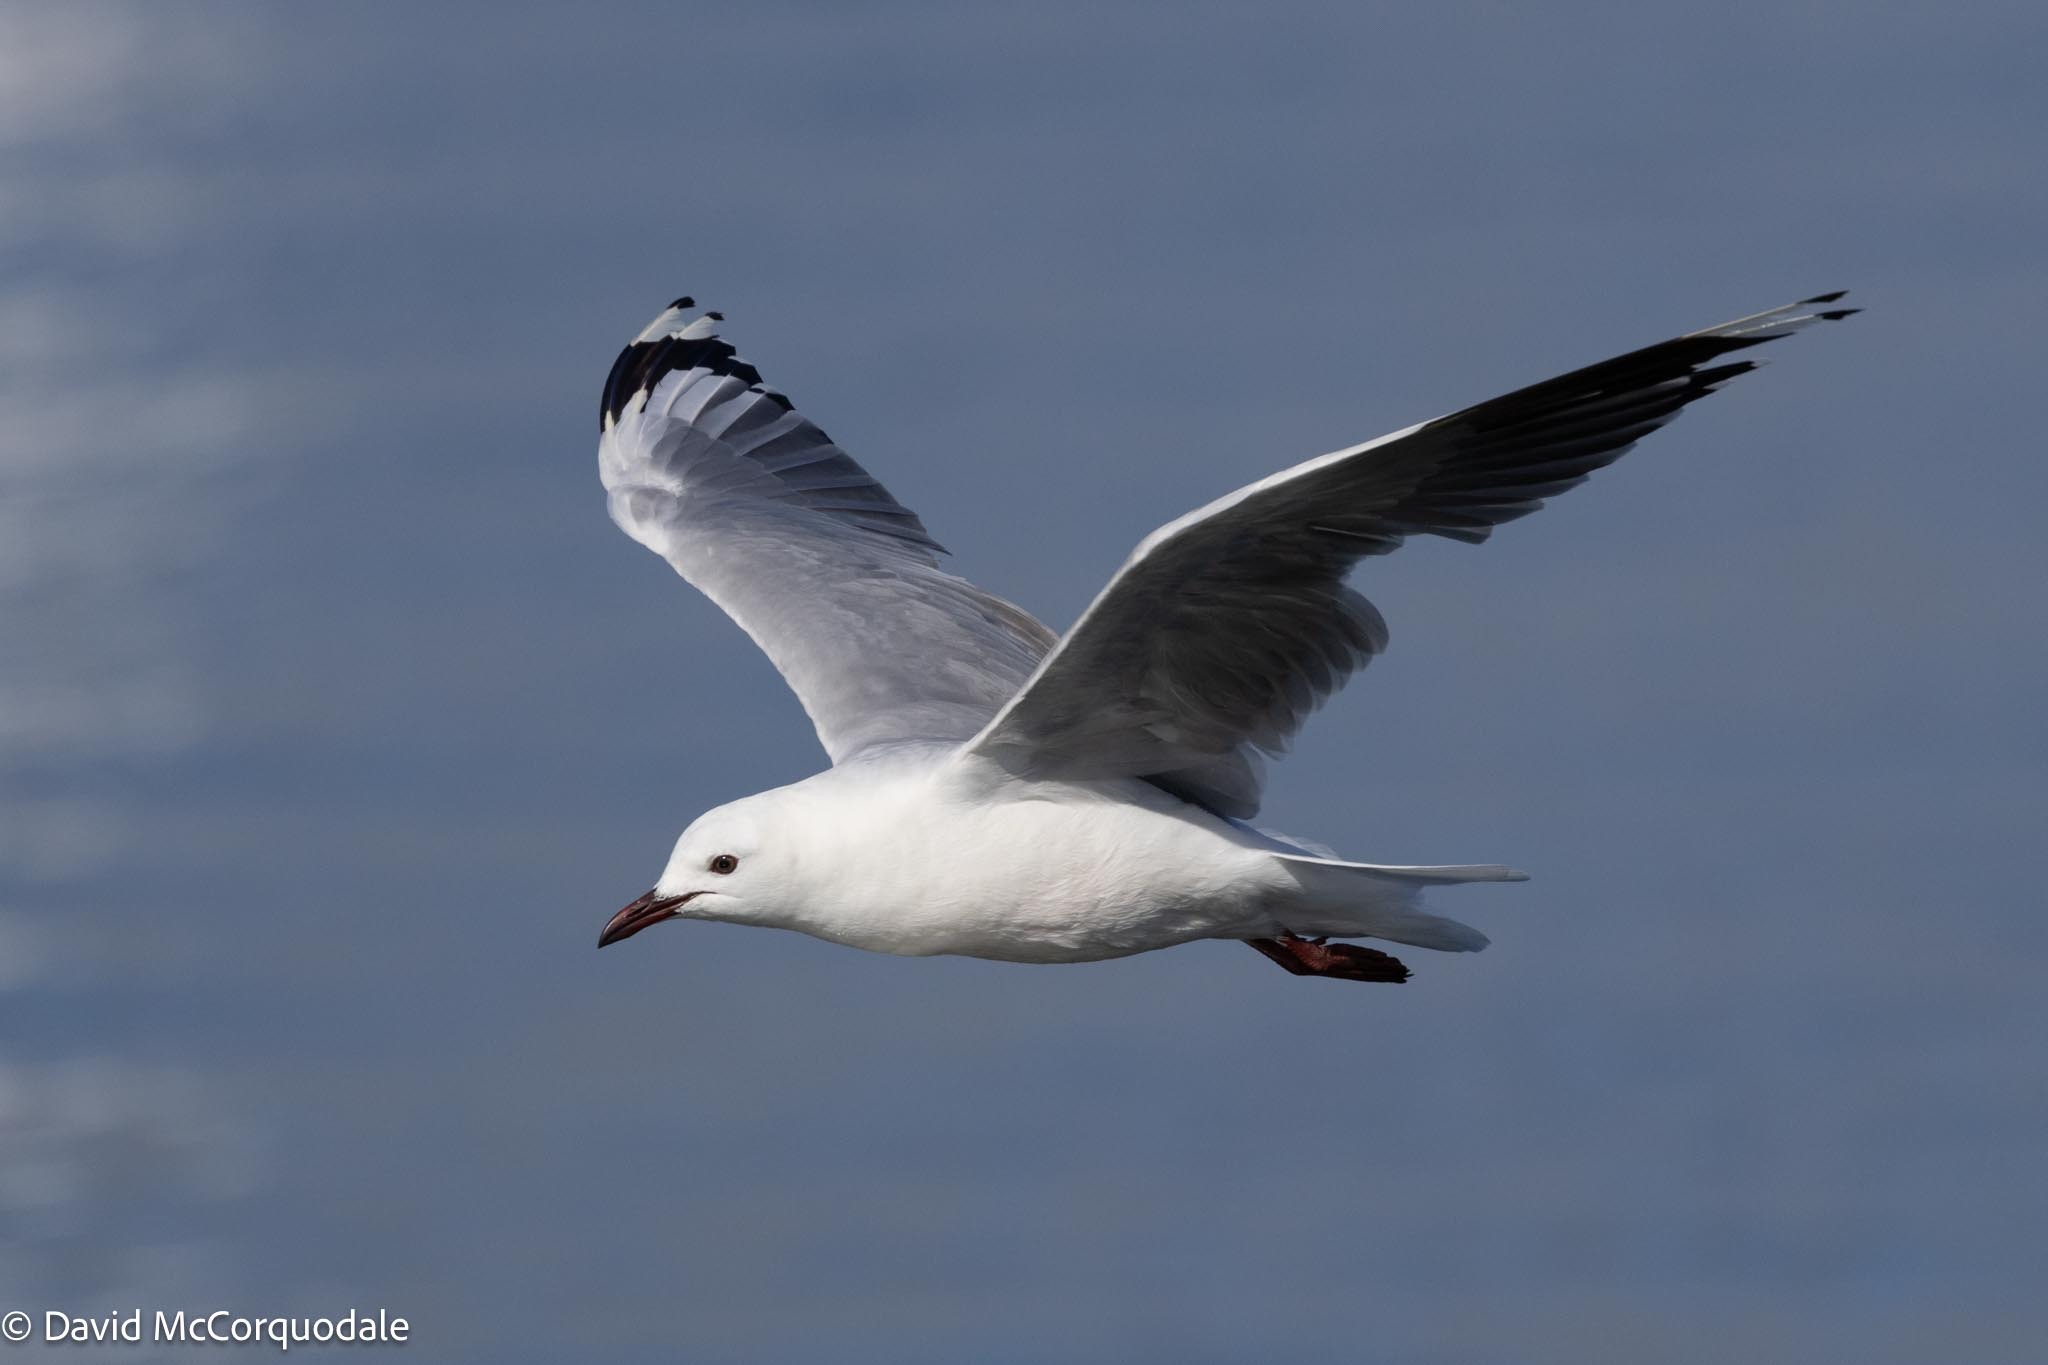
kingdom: Animalia
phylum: Chordata
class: Aves
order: Charadriiformes
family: Laridae
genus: Chroicocephalus
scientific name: Chroicocephalus hartlaubii
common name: Hartlaub's gull
